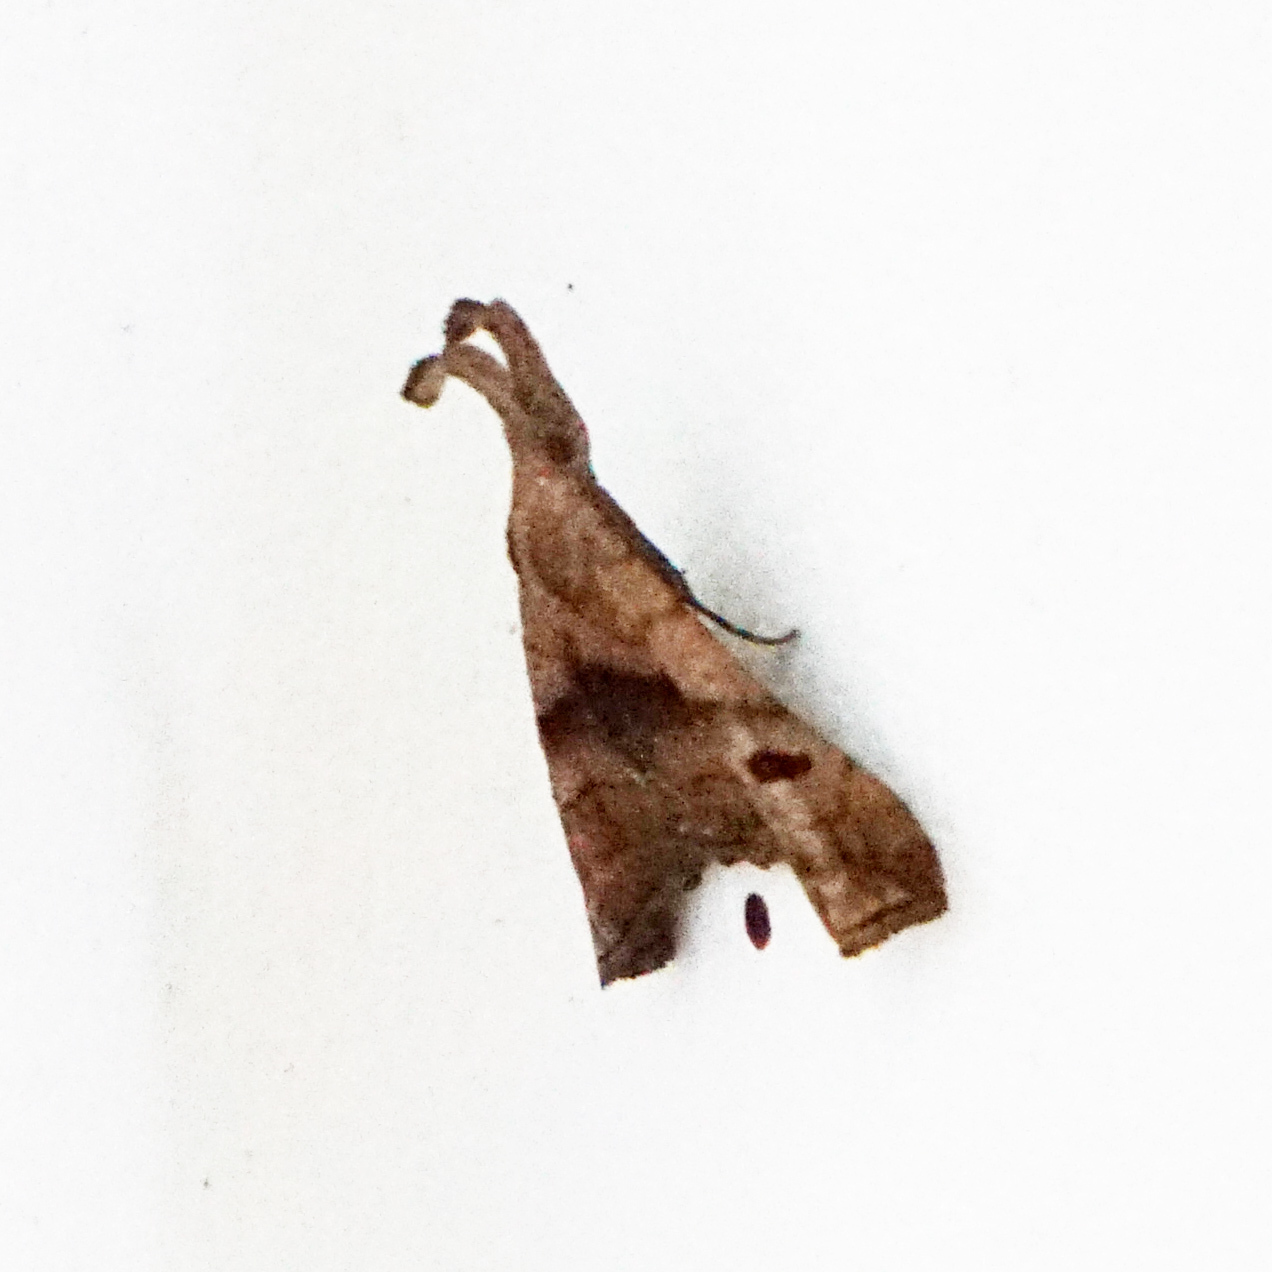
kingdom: Animalia
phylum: Arthropoda
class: Insecta
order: Lepidoptera
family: Erebidae
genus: Palthis
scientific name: Palthis angulalis
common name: Dark-spotted palthis moth
